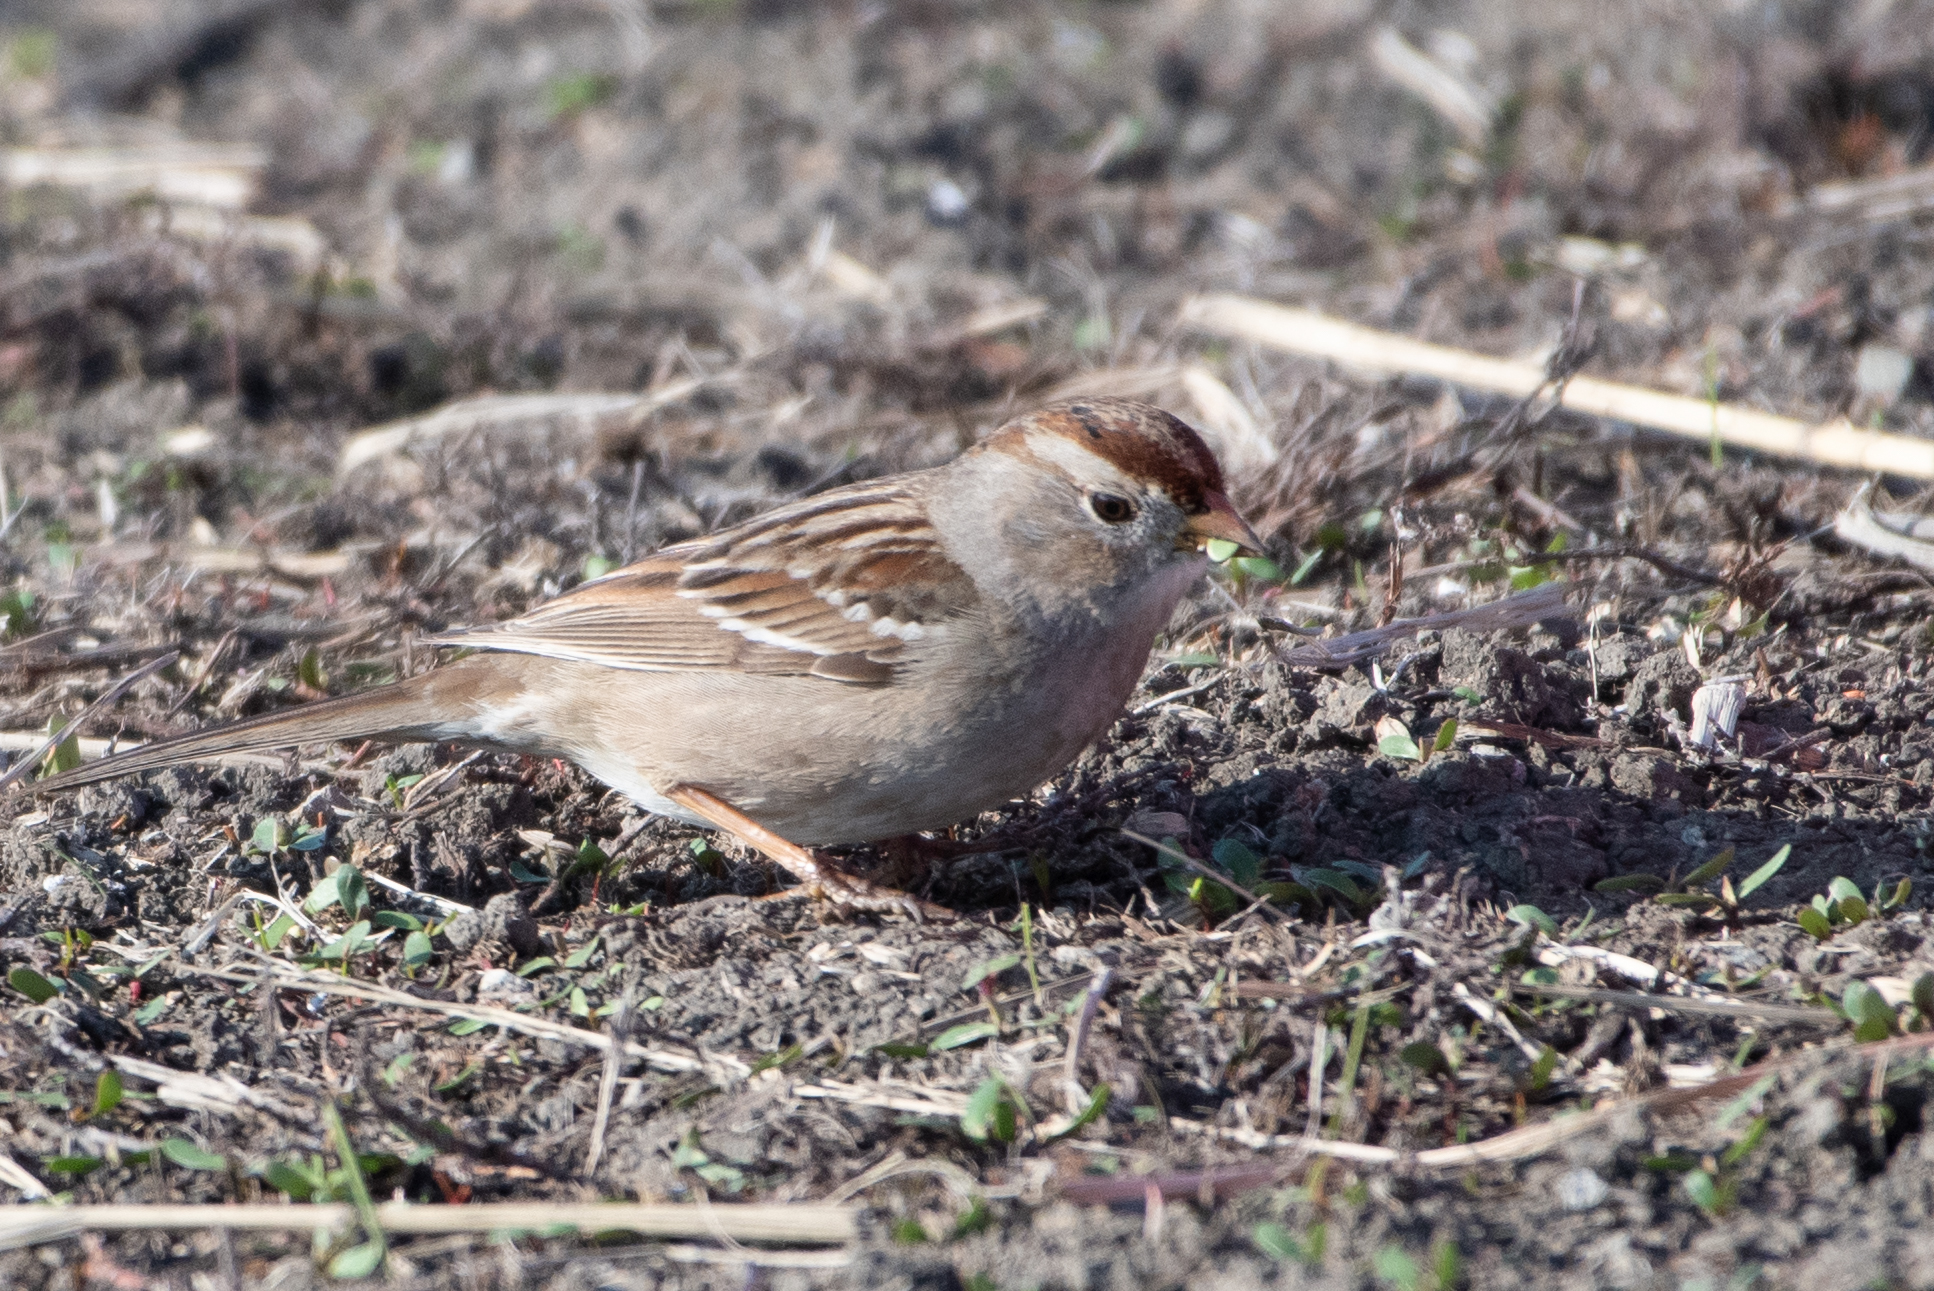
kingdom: Animalia
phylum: Chordata
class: Aves
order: Passeriformes
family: Passerellidae
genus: Zonotrichia
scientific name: Zonotrichia leucophrys
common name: White-crowned sparrow
